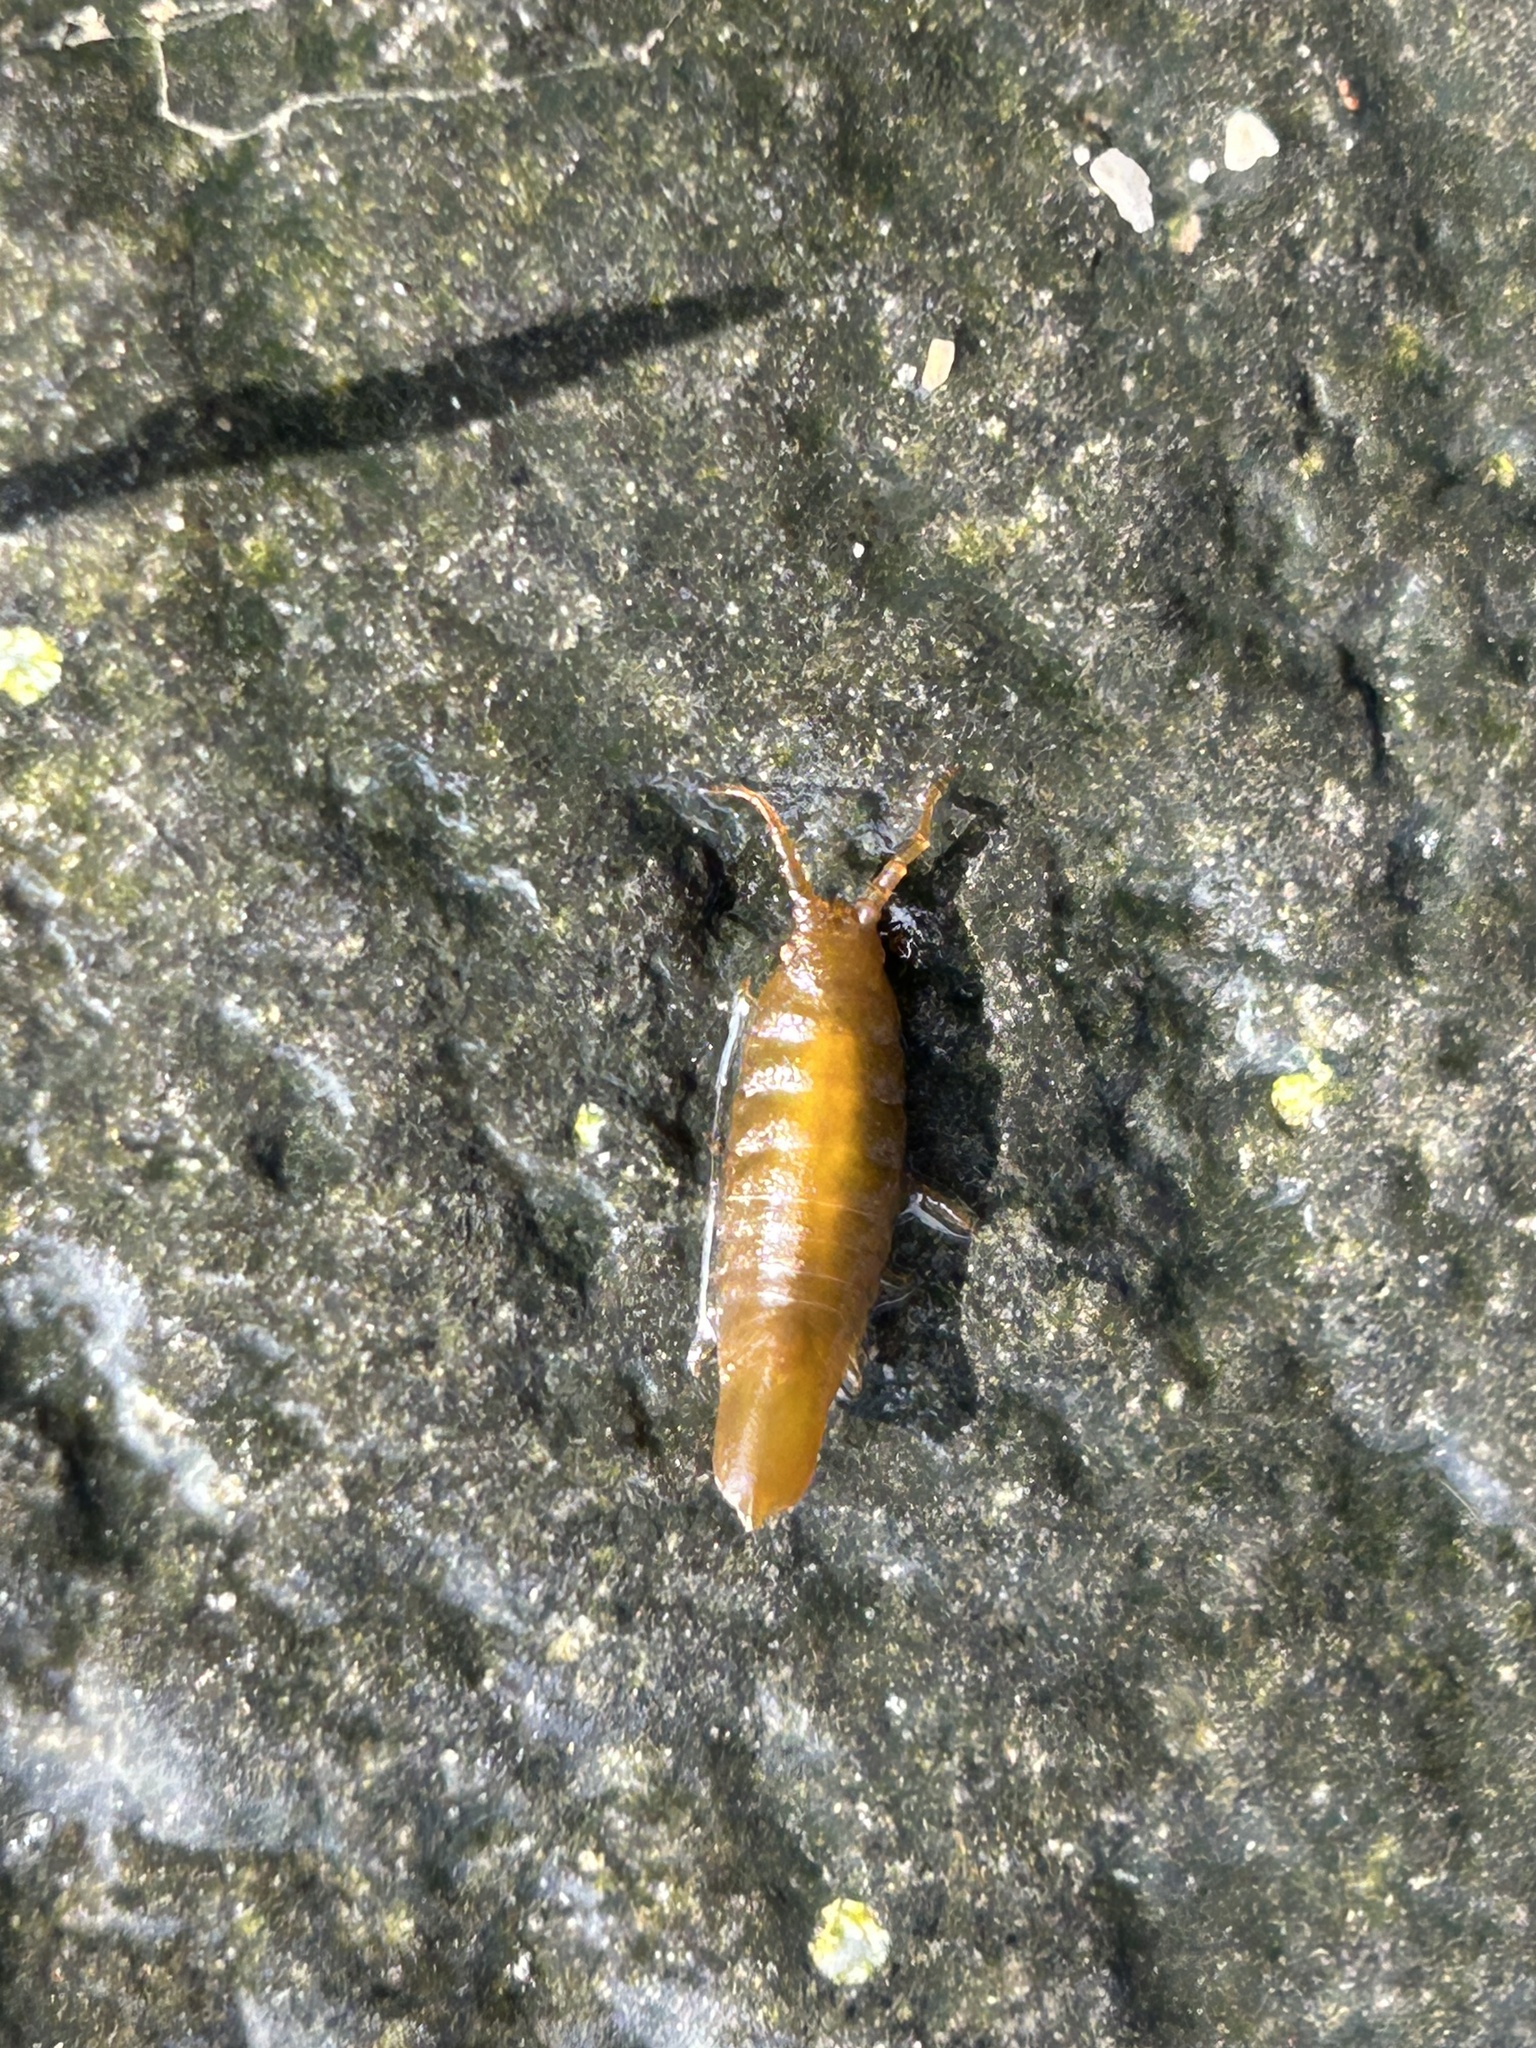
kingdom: Animalia
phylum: Arthropoda
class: Malacostraca
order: Isopoda
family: Idoteidae
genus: Idotea
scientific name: Idotea granulosa
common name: Granular marine isopod
